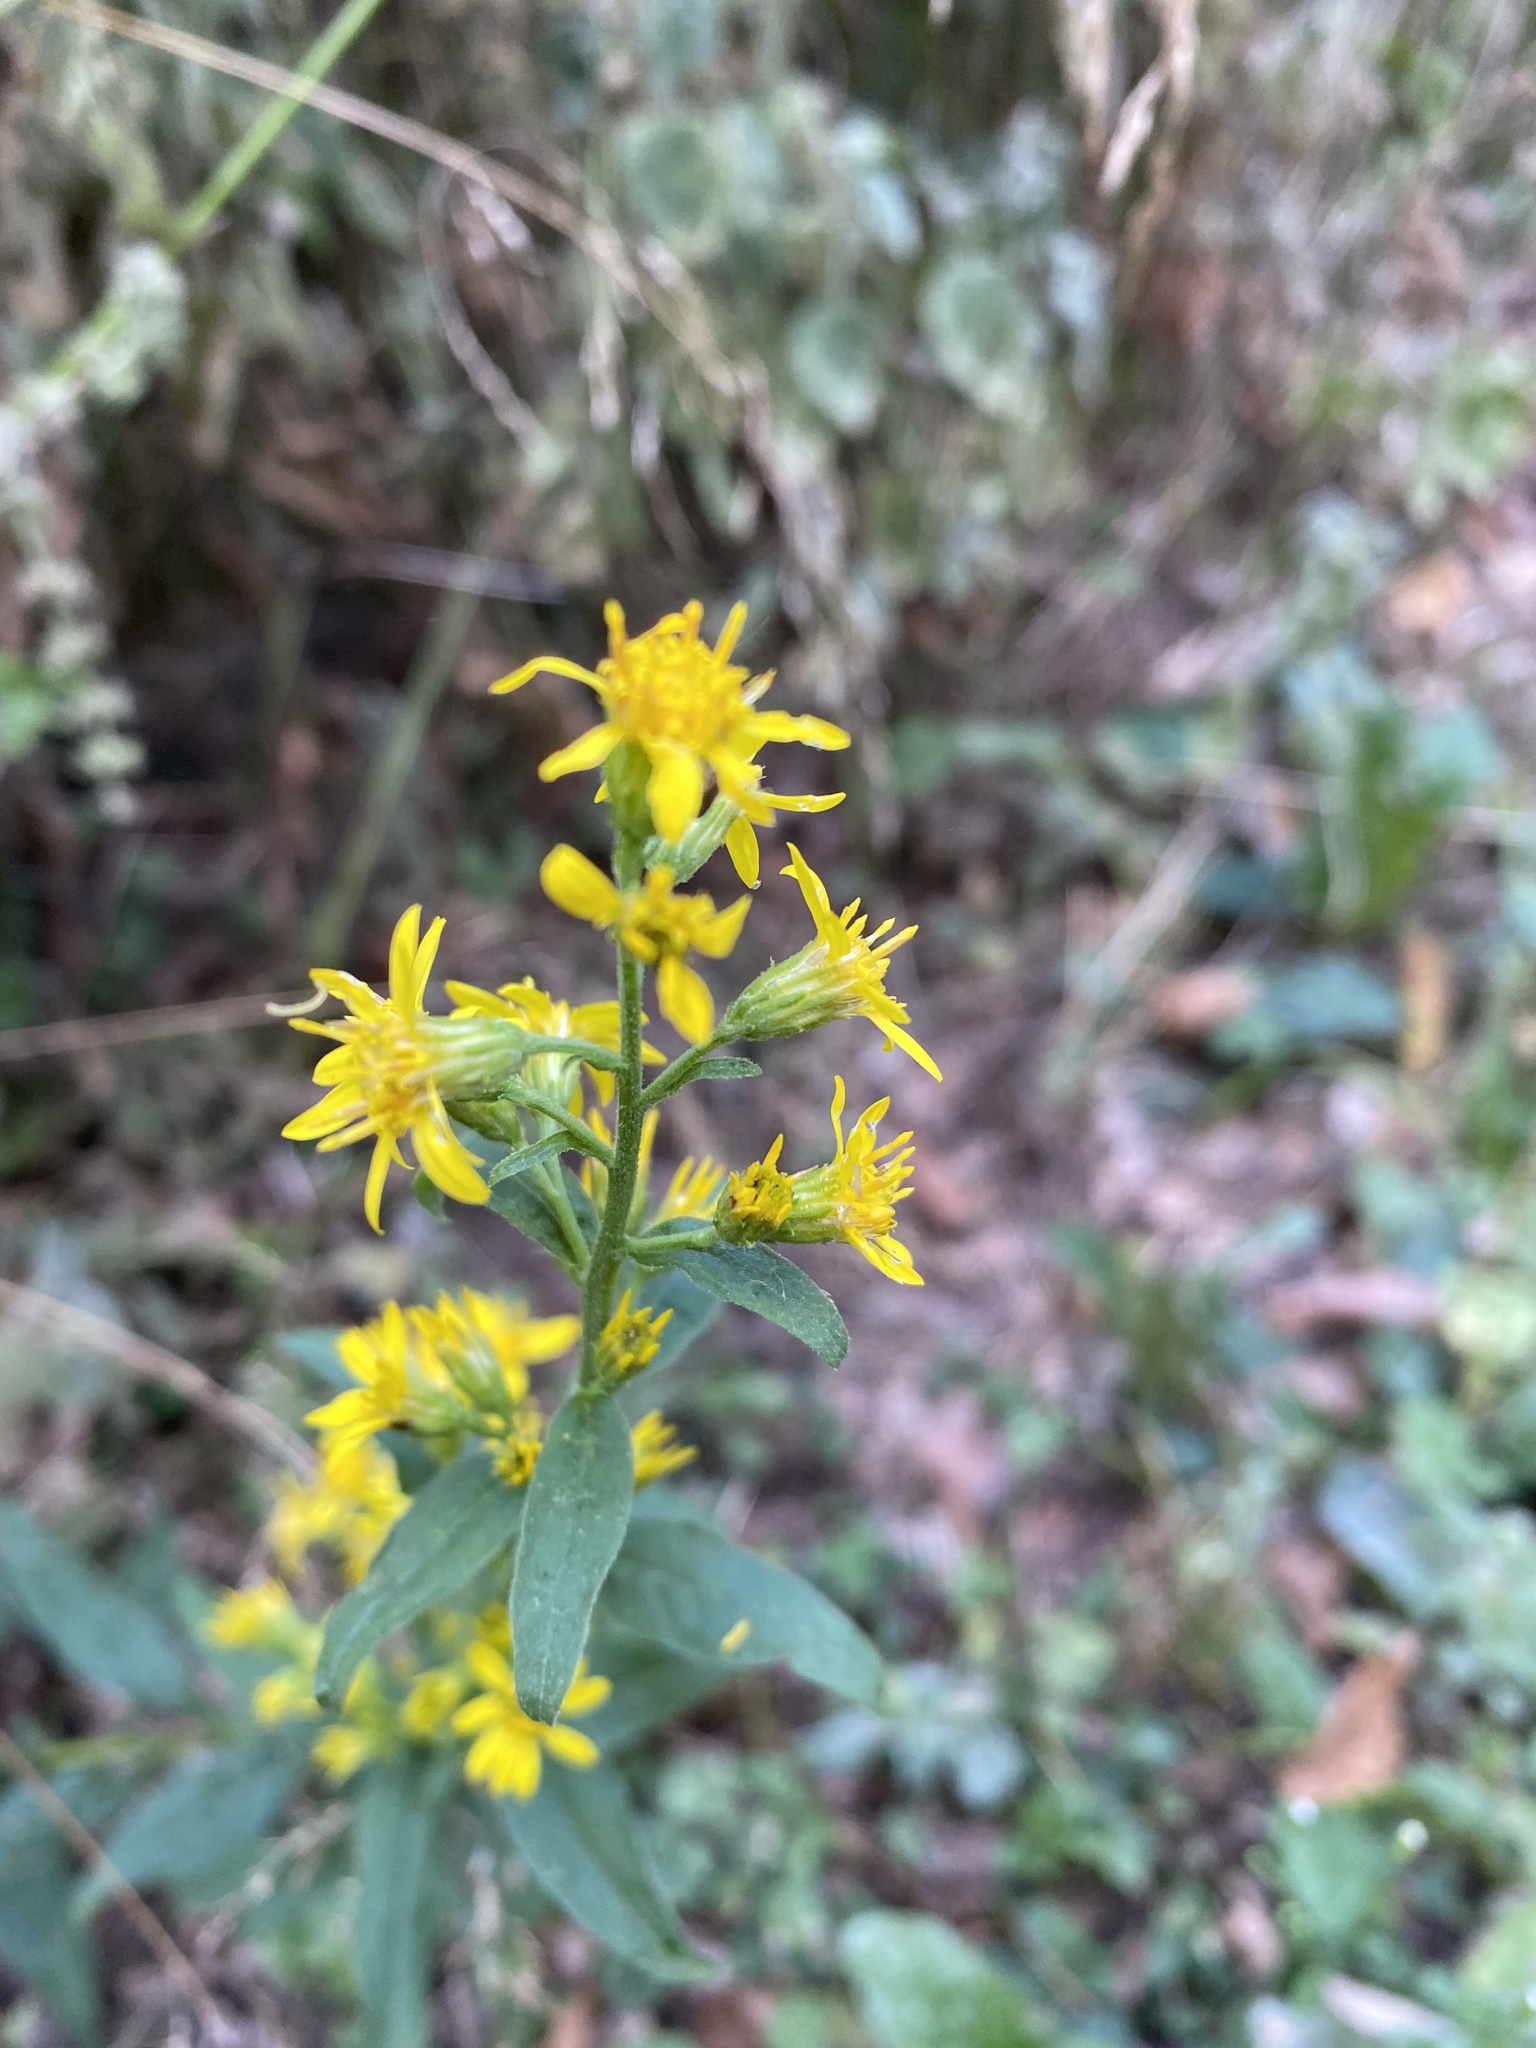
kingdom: Plantae
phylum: Tracheophyta
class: Magnoliopsida
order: Asterales
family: Asteraceae
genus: Solidago
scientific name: Solidago virgaurea
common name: Goldenrod
